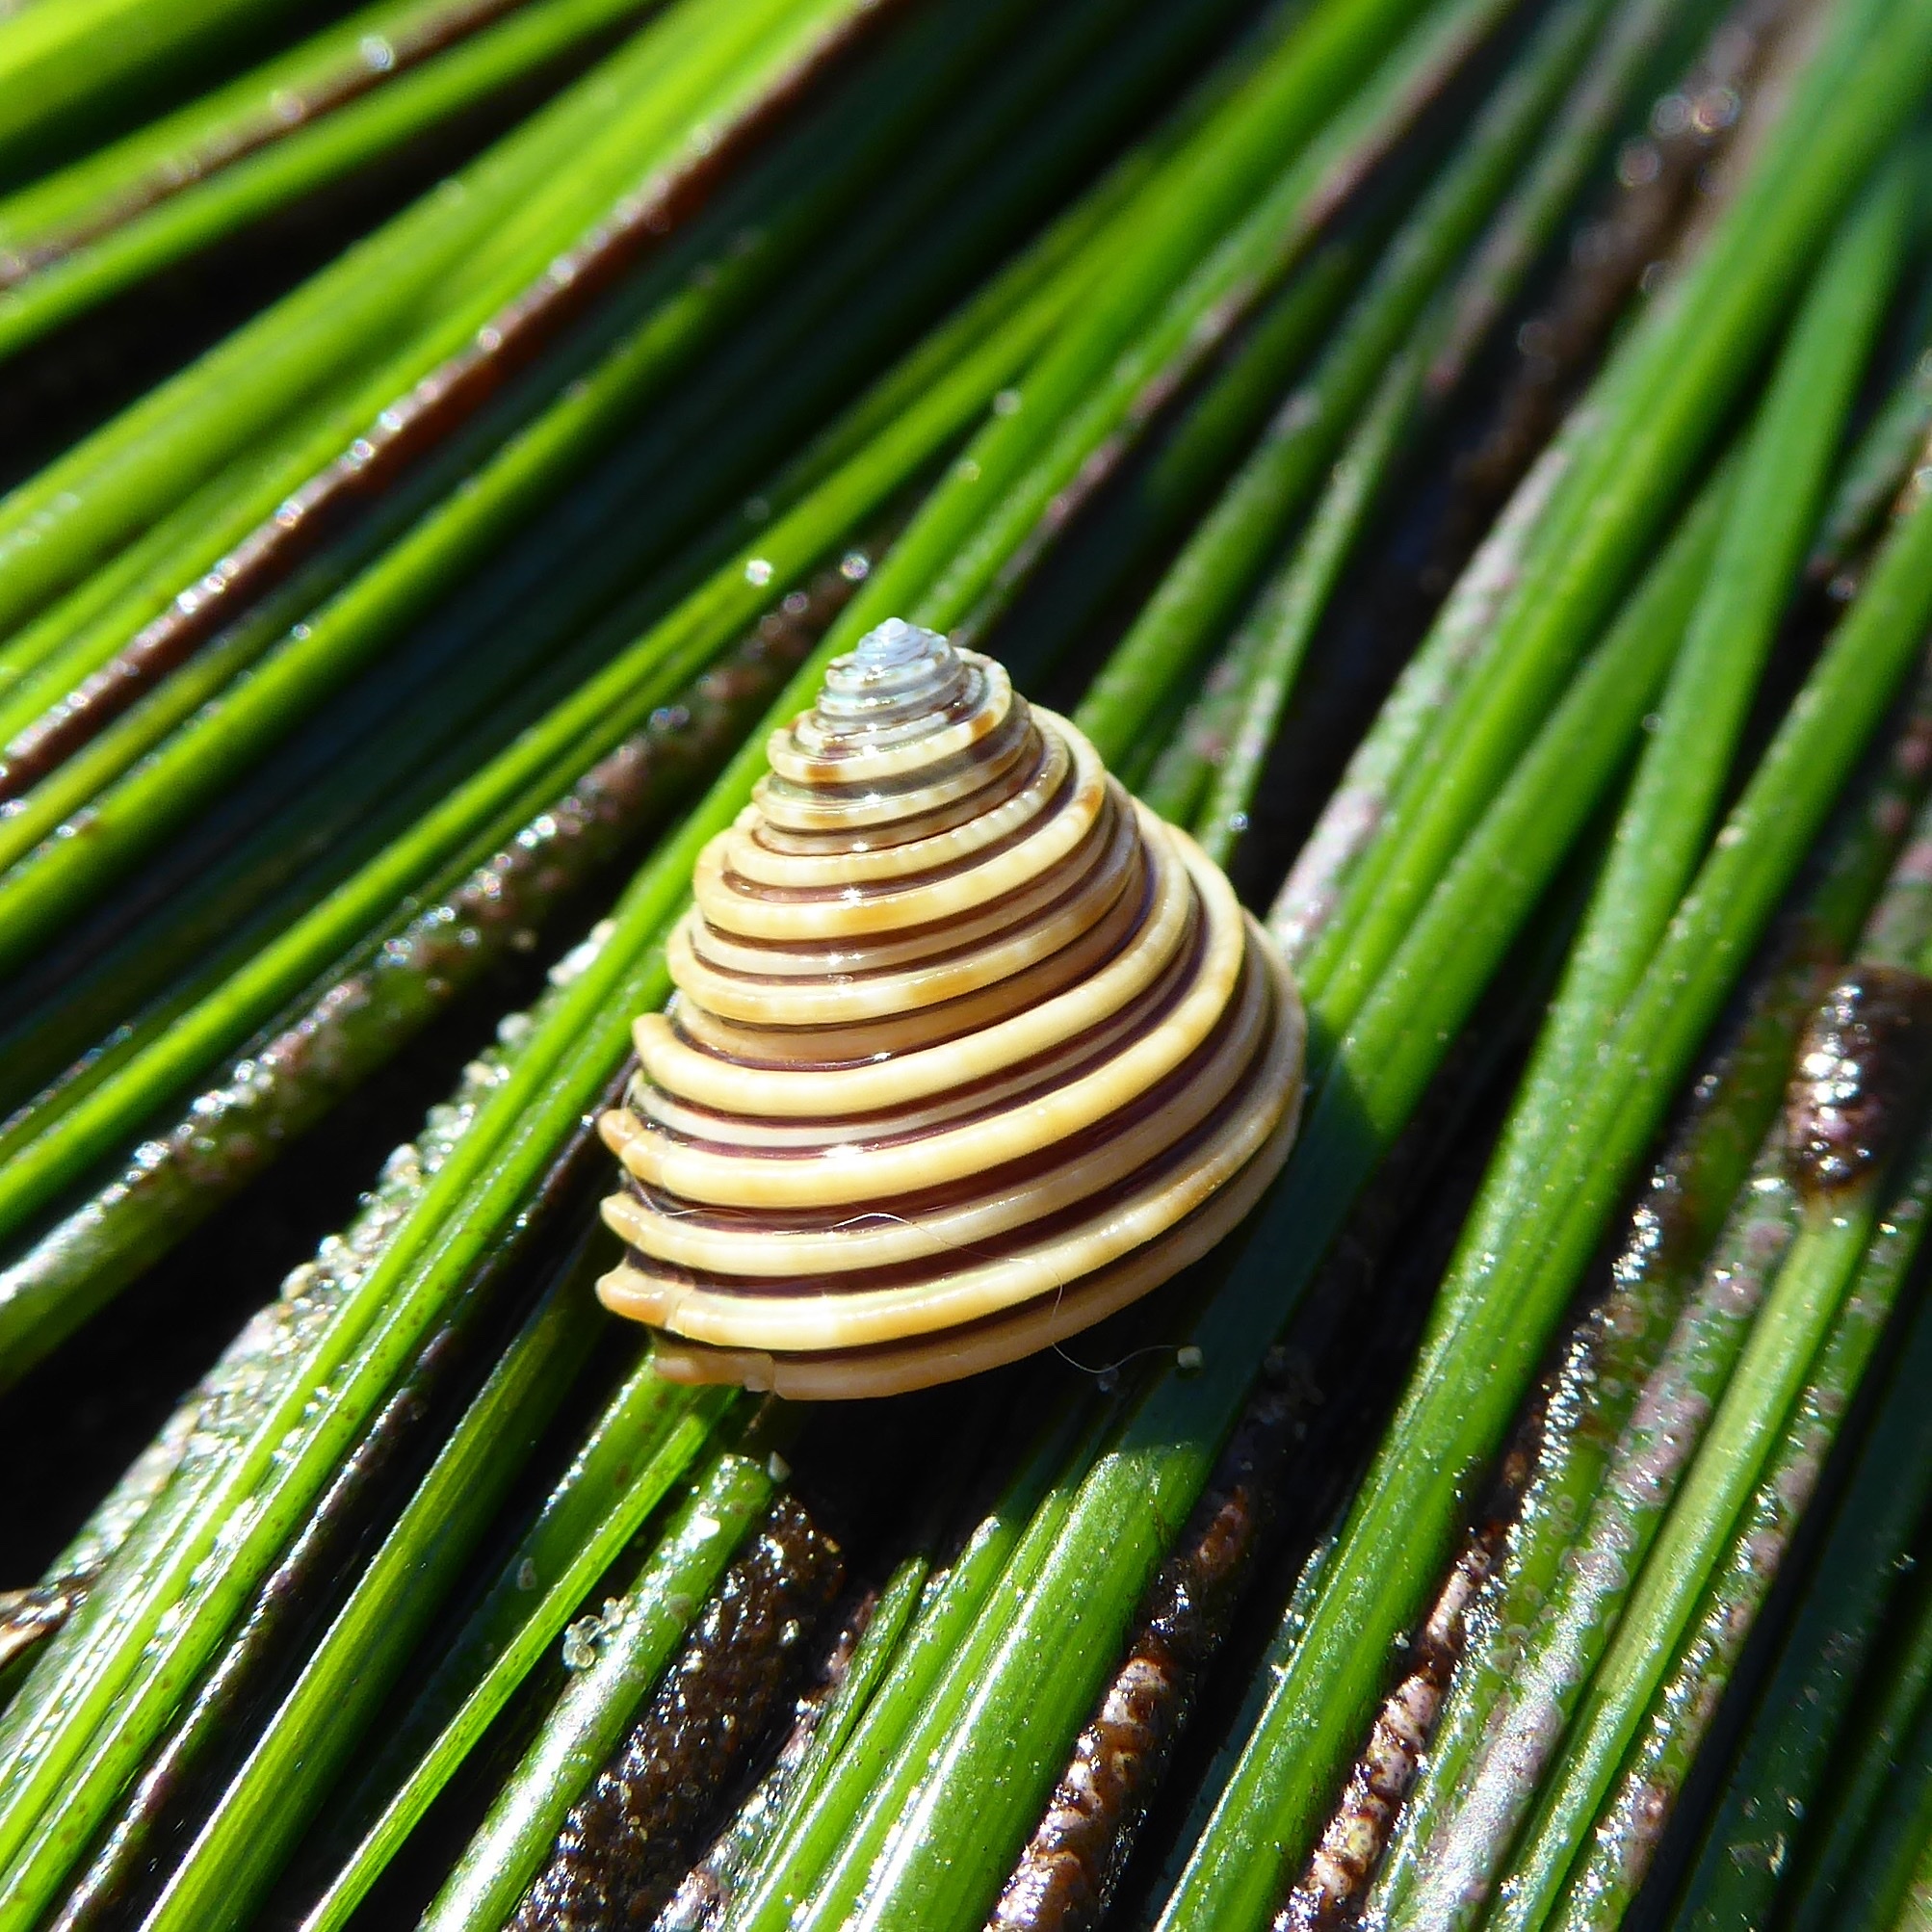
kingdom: Animalia
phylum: Mollusca
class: Gastropoda
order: Trochida
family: Calliostomatidae
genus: Calliostoma
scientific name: Calliostoma canaliculatum
